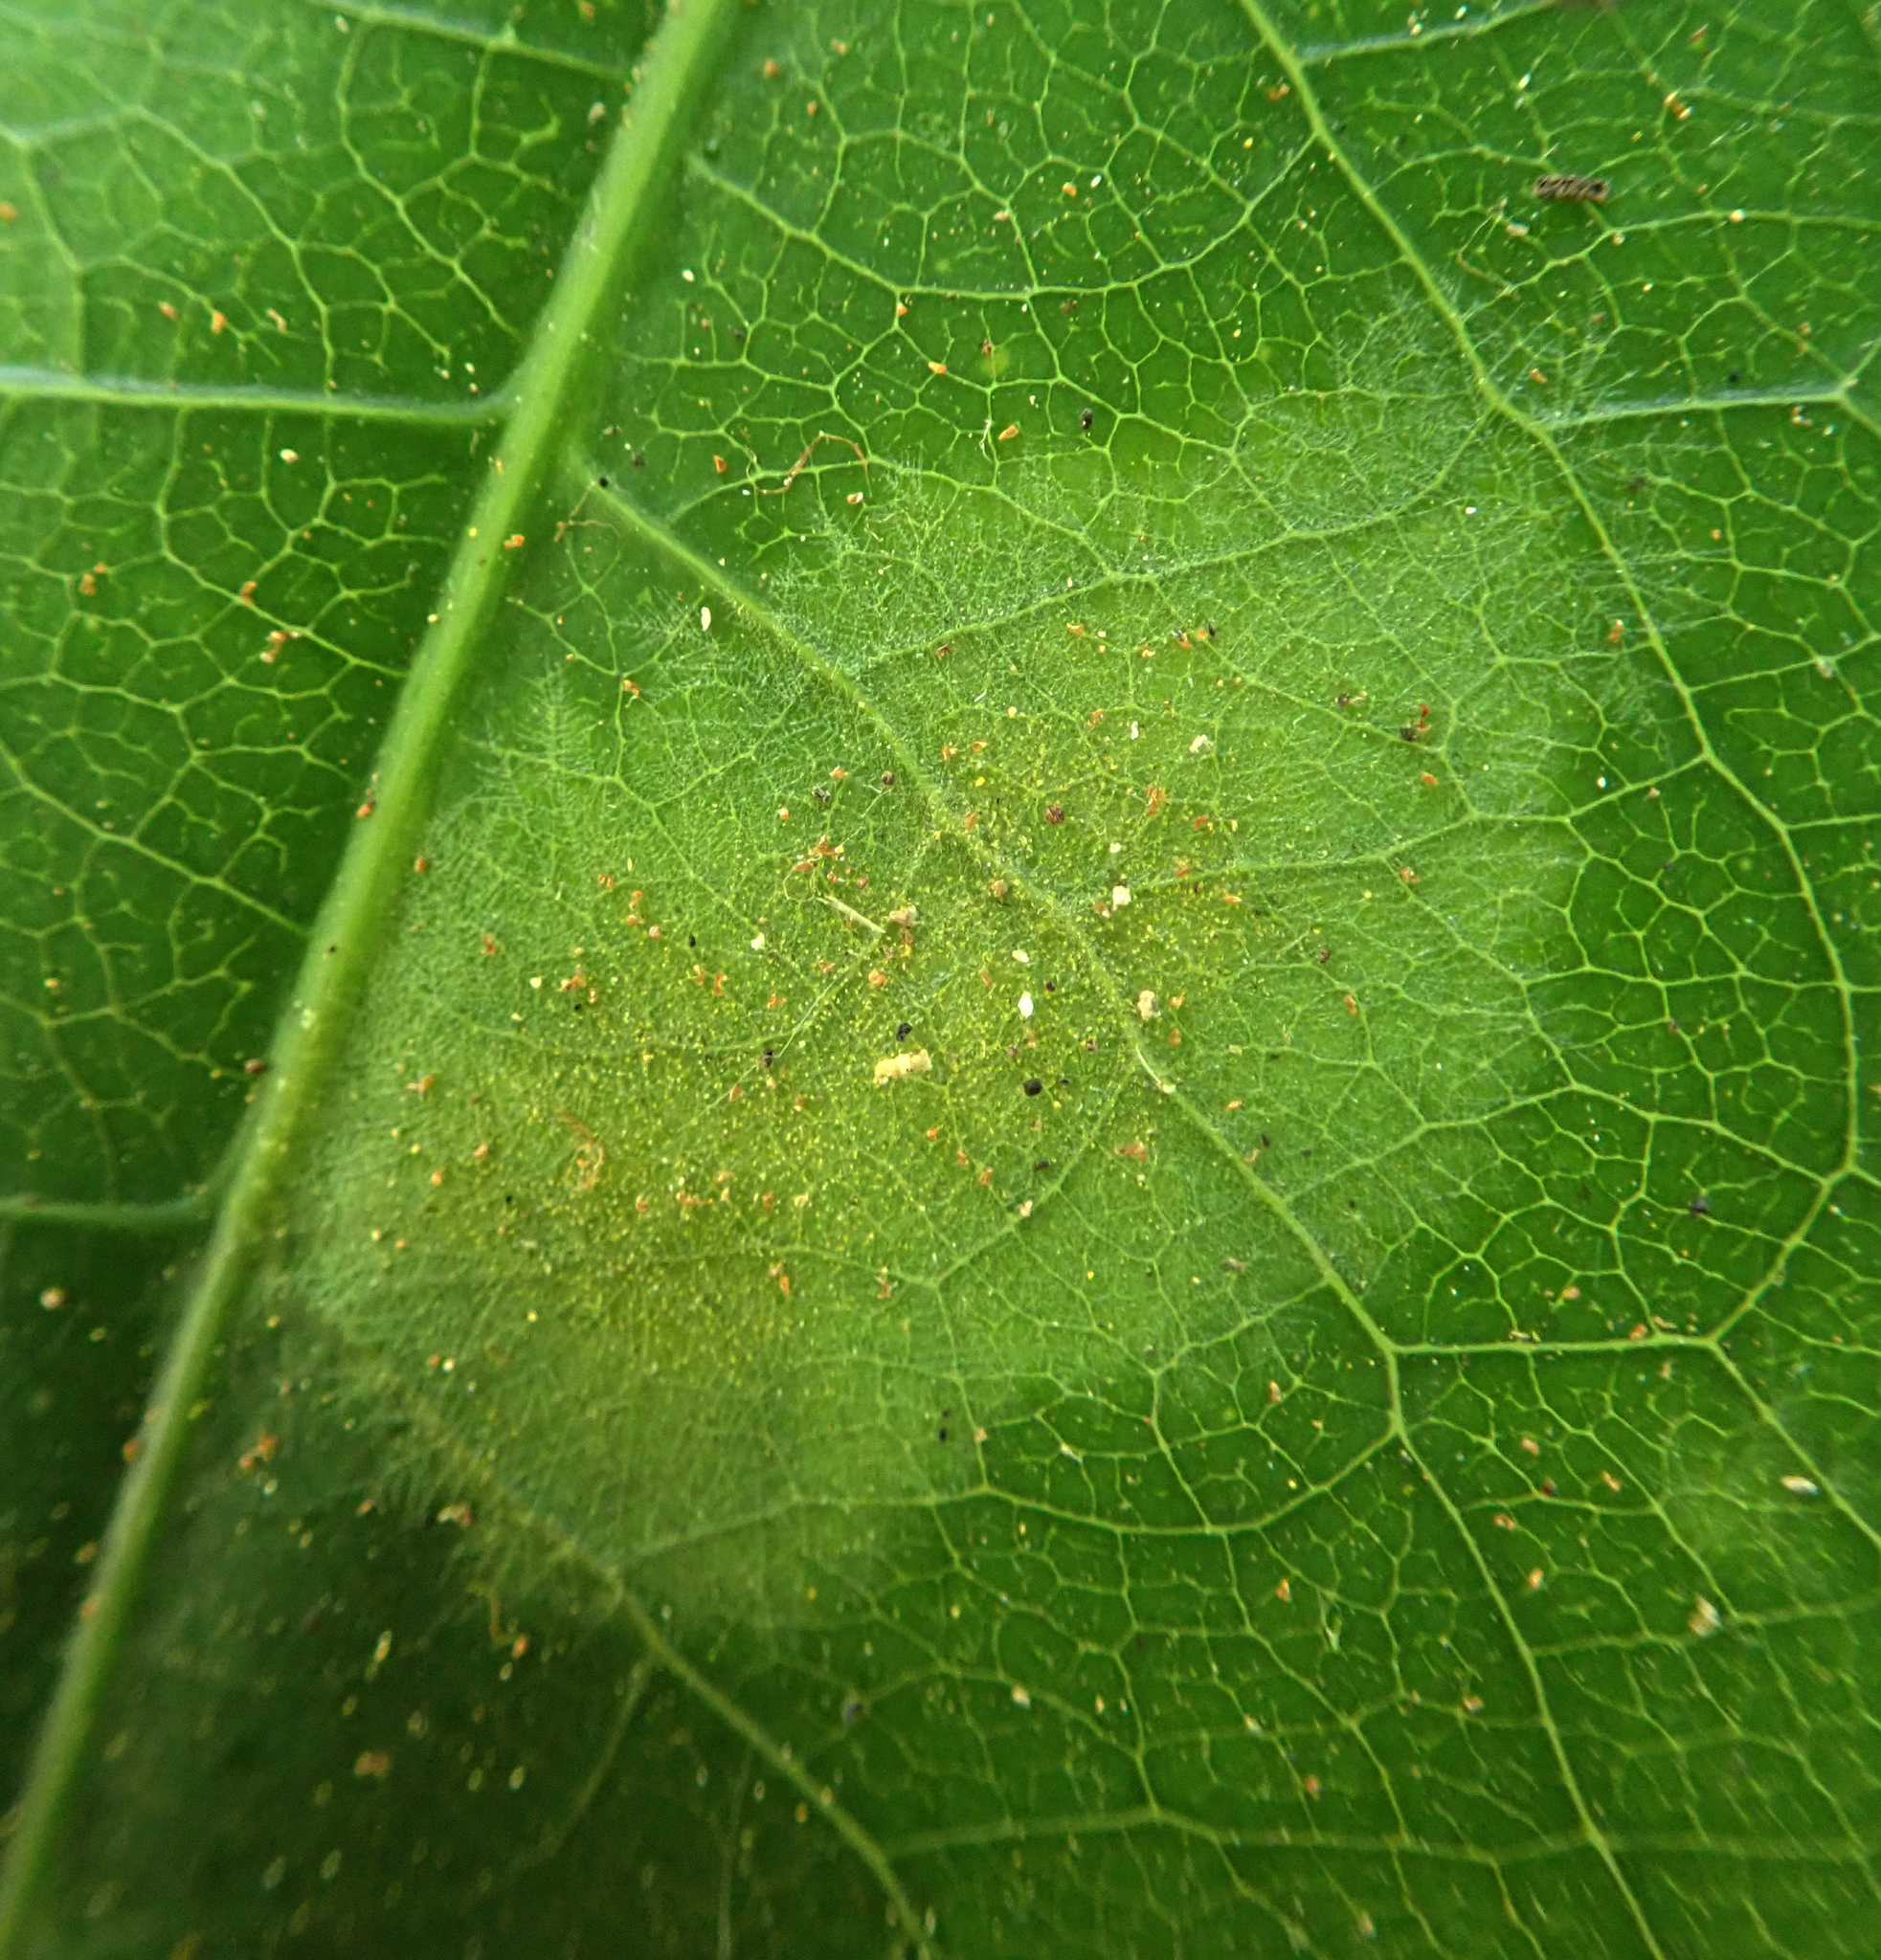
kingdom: Plantae
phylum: Chlorophyta
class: Ulvophyceae
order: Trentepohliales
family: Trentepohliaceae
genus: Cephaleuros
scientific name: Cephaleuros
